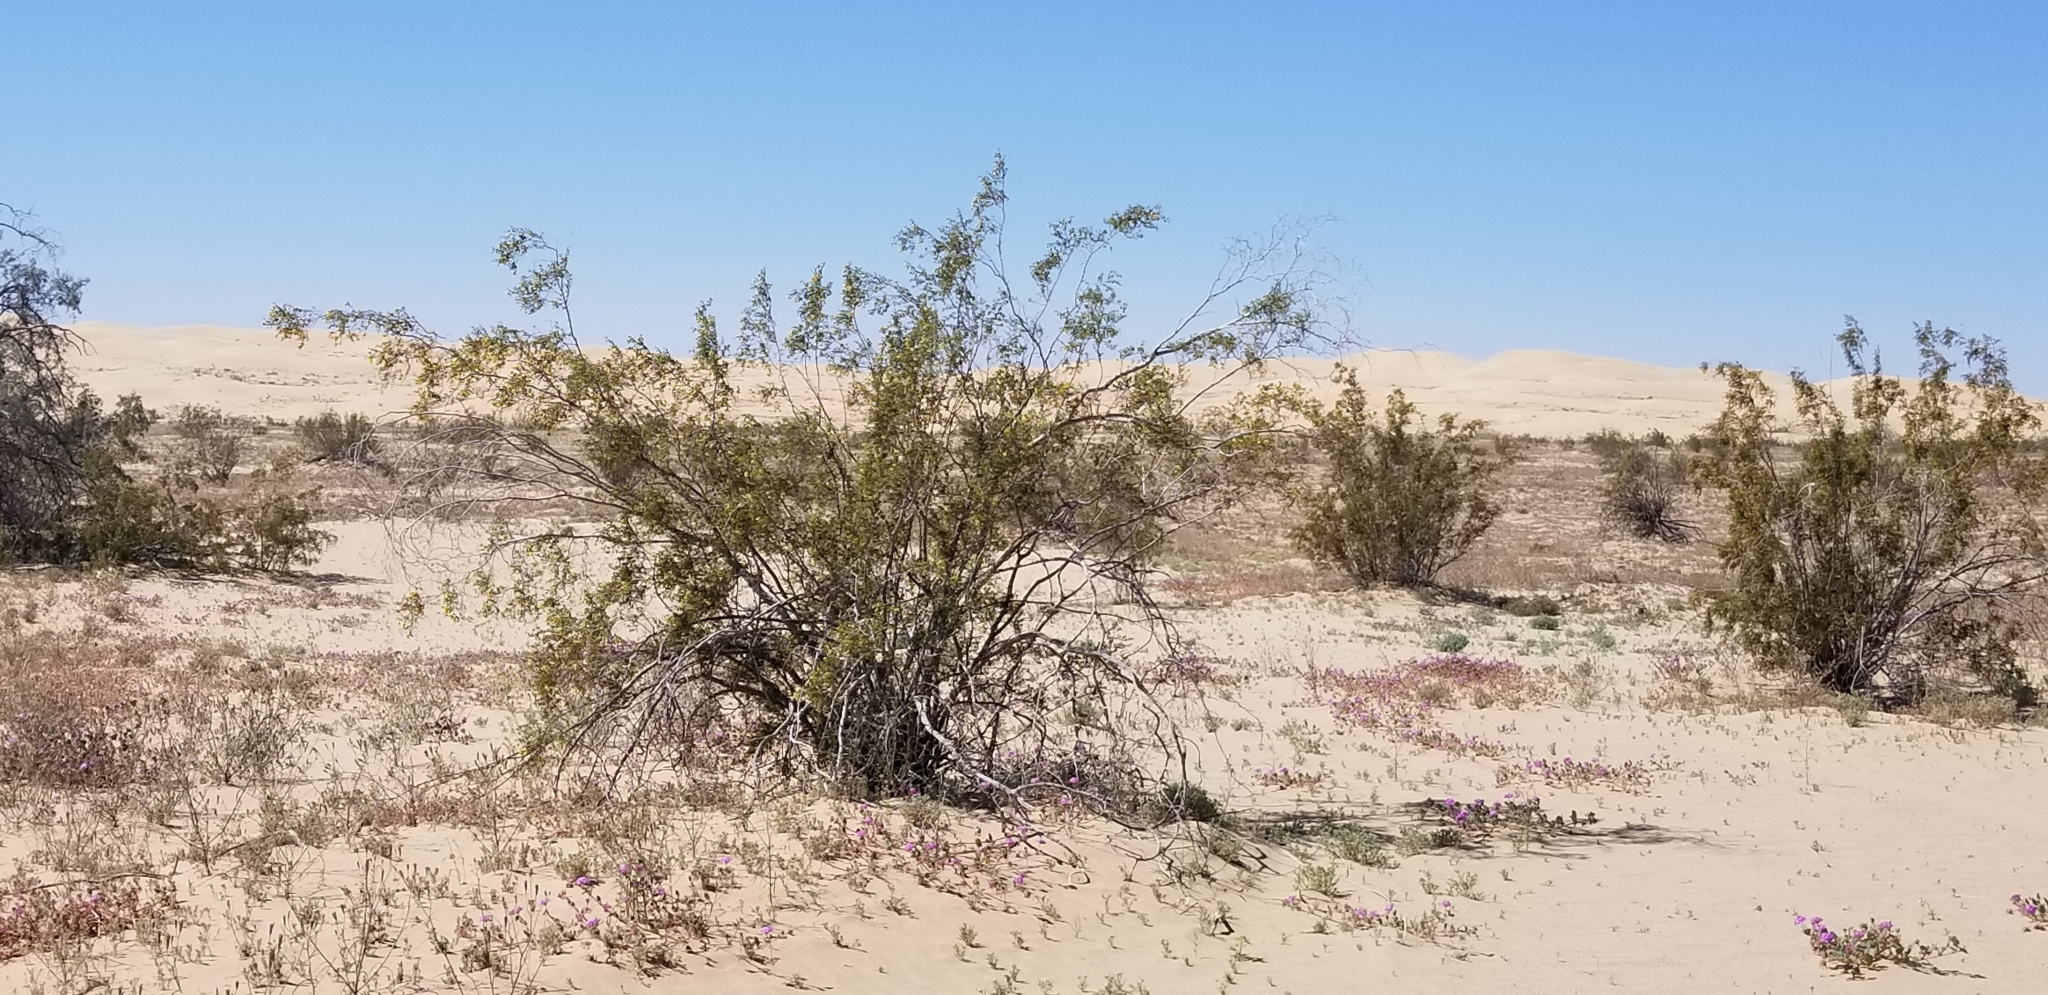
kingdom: Plantae
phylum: Tracheophyta
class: Magnoliopsida
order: Zygophyllales
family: Zygophyllaceae
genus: Larrea
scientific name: Larrea tridentata
